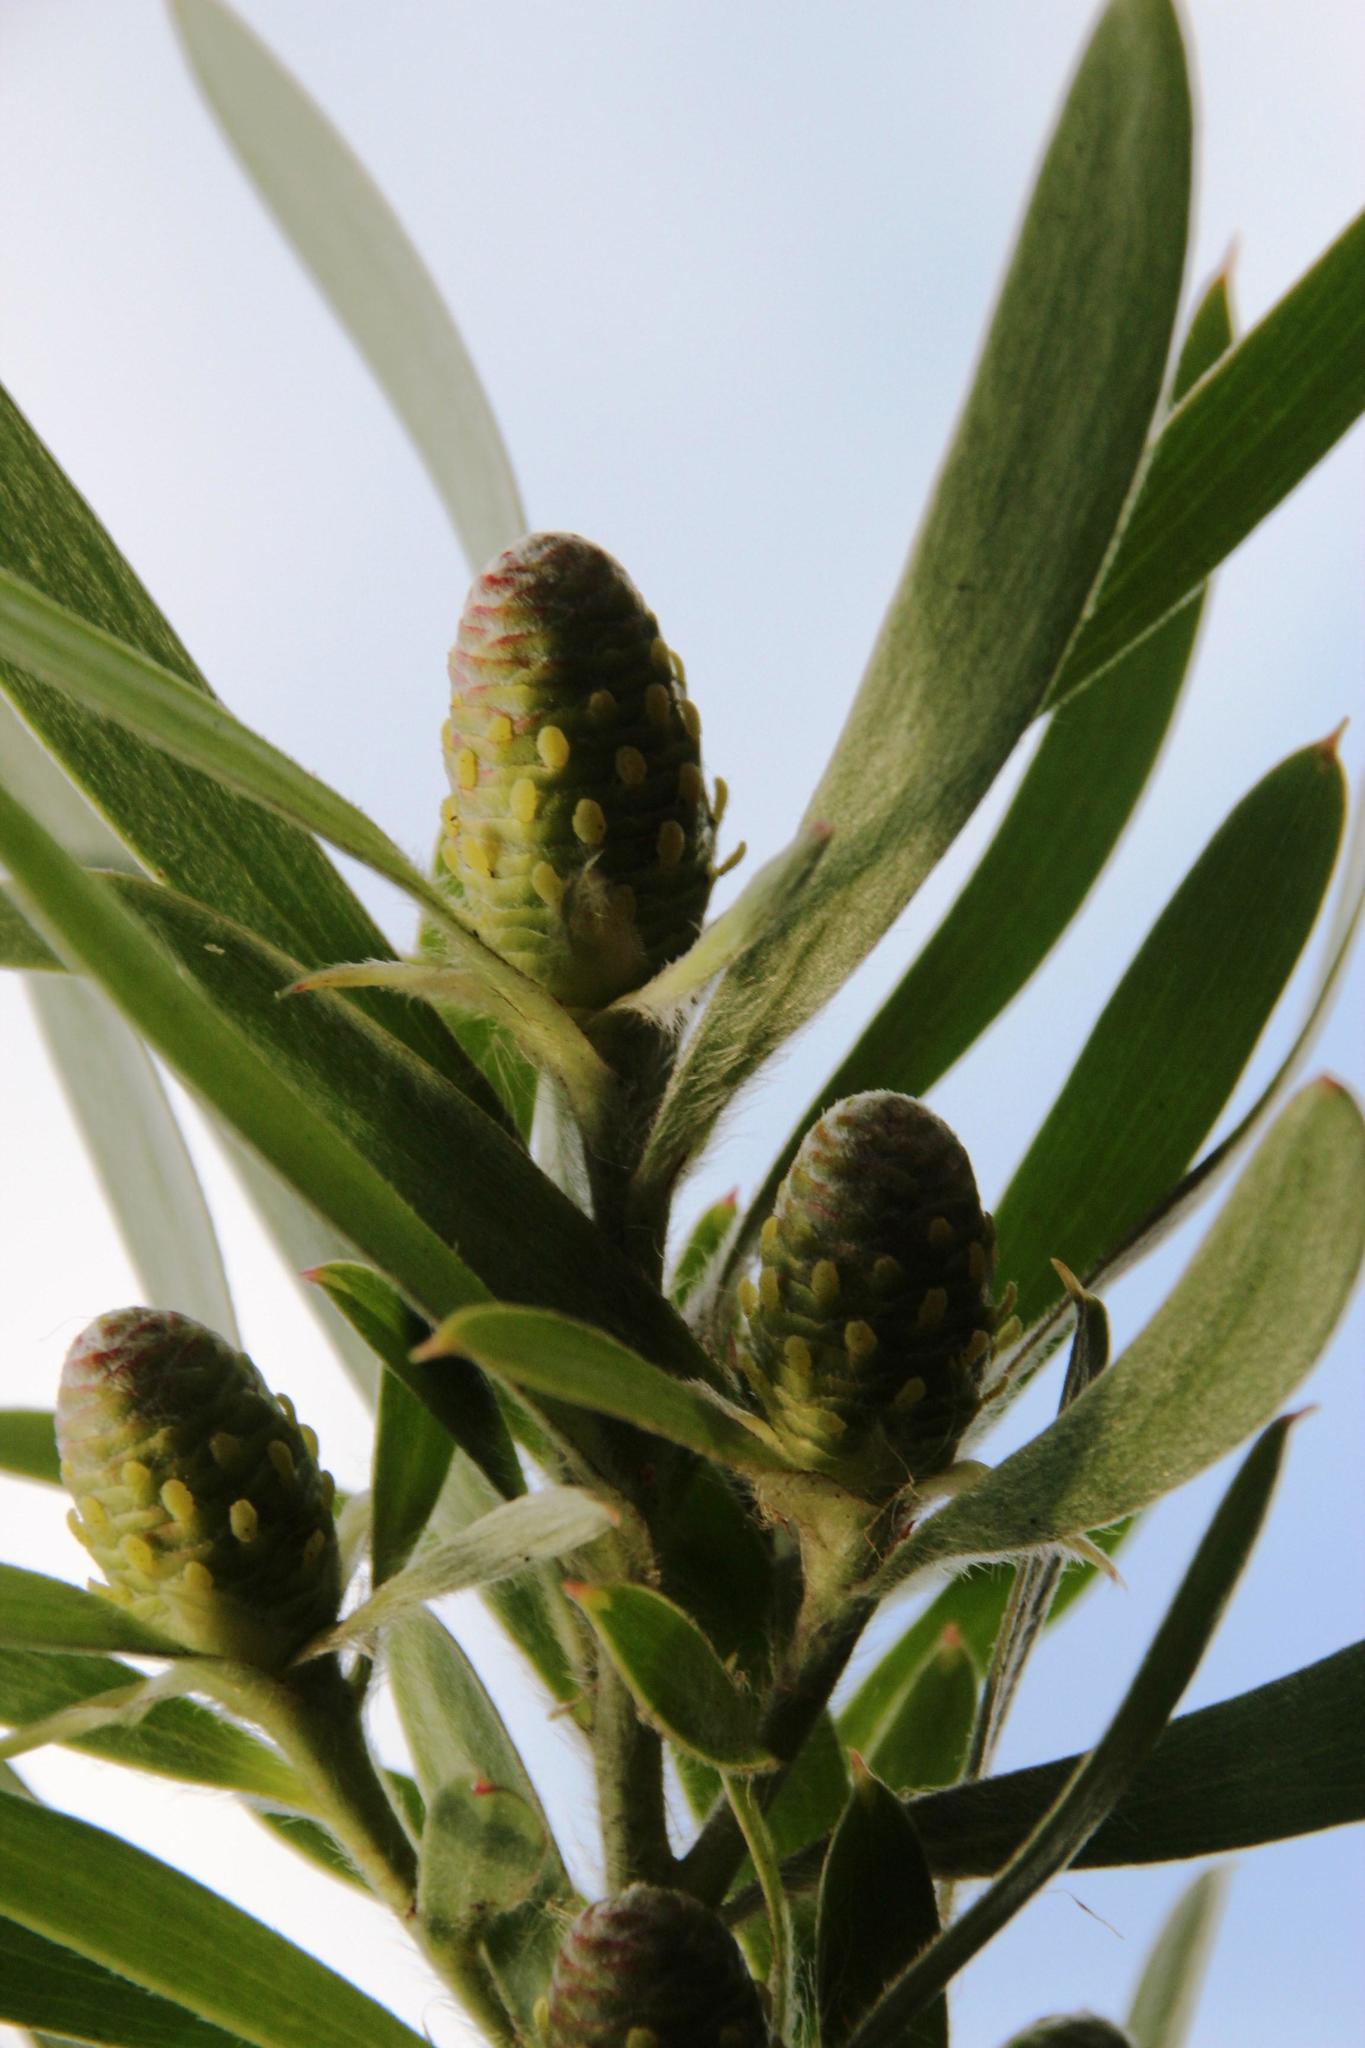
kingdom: Plantae
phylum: Tracheophyta
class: Magnoliopsida
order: Proteales
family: Proteaceae
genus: Leucadendron
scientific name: Leucadendron macowanii
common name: Acacia-leaf conebush
